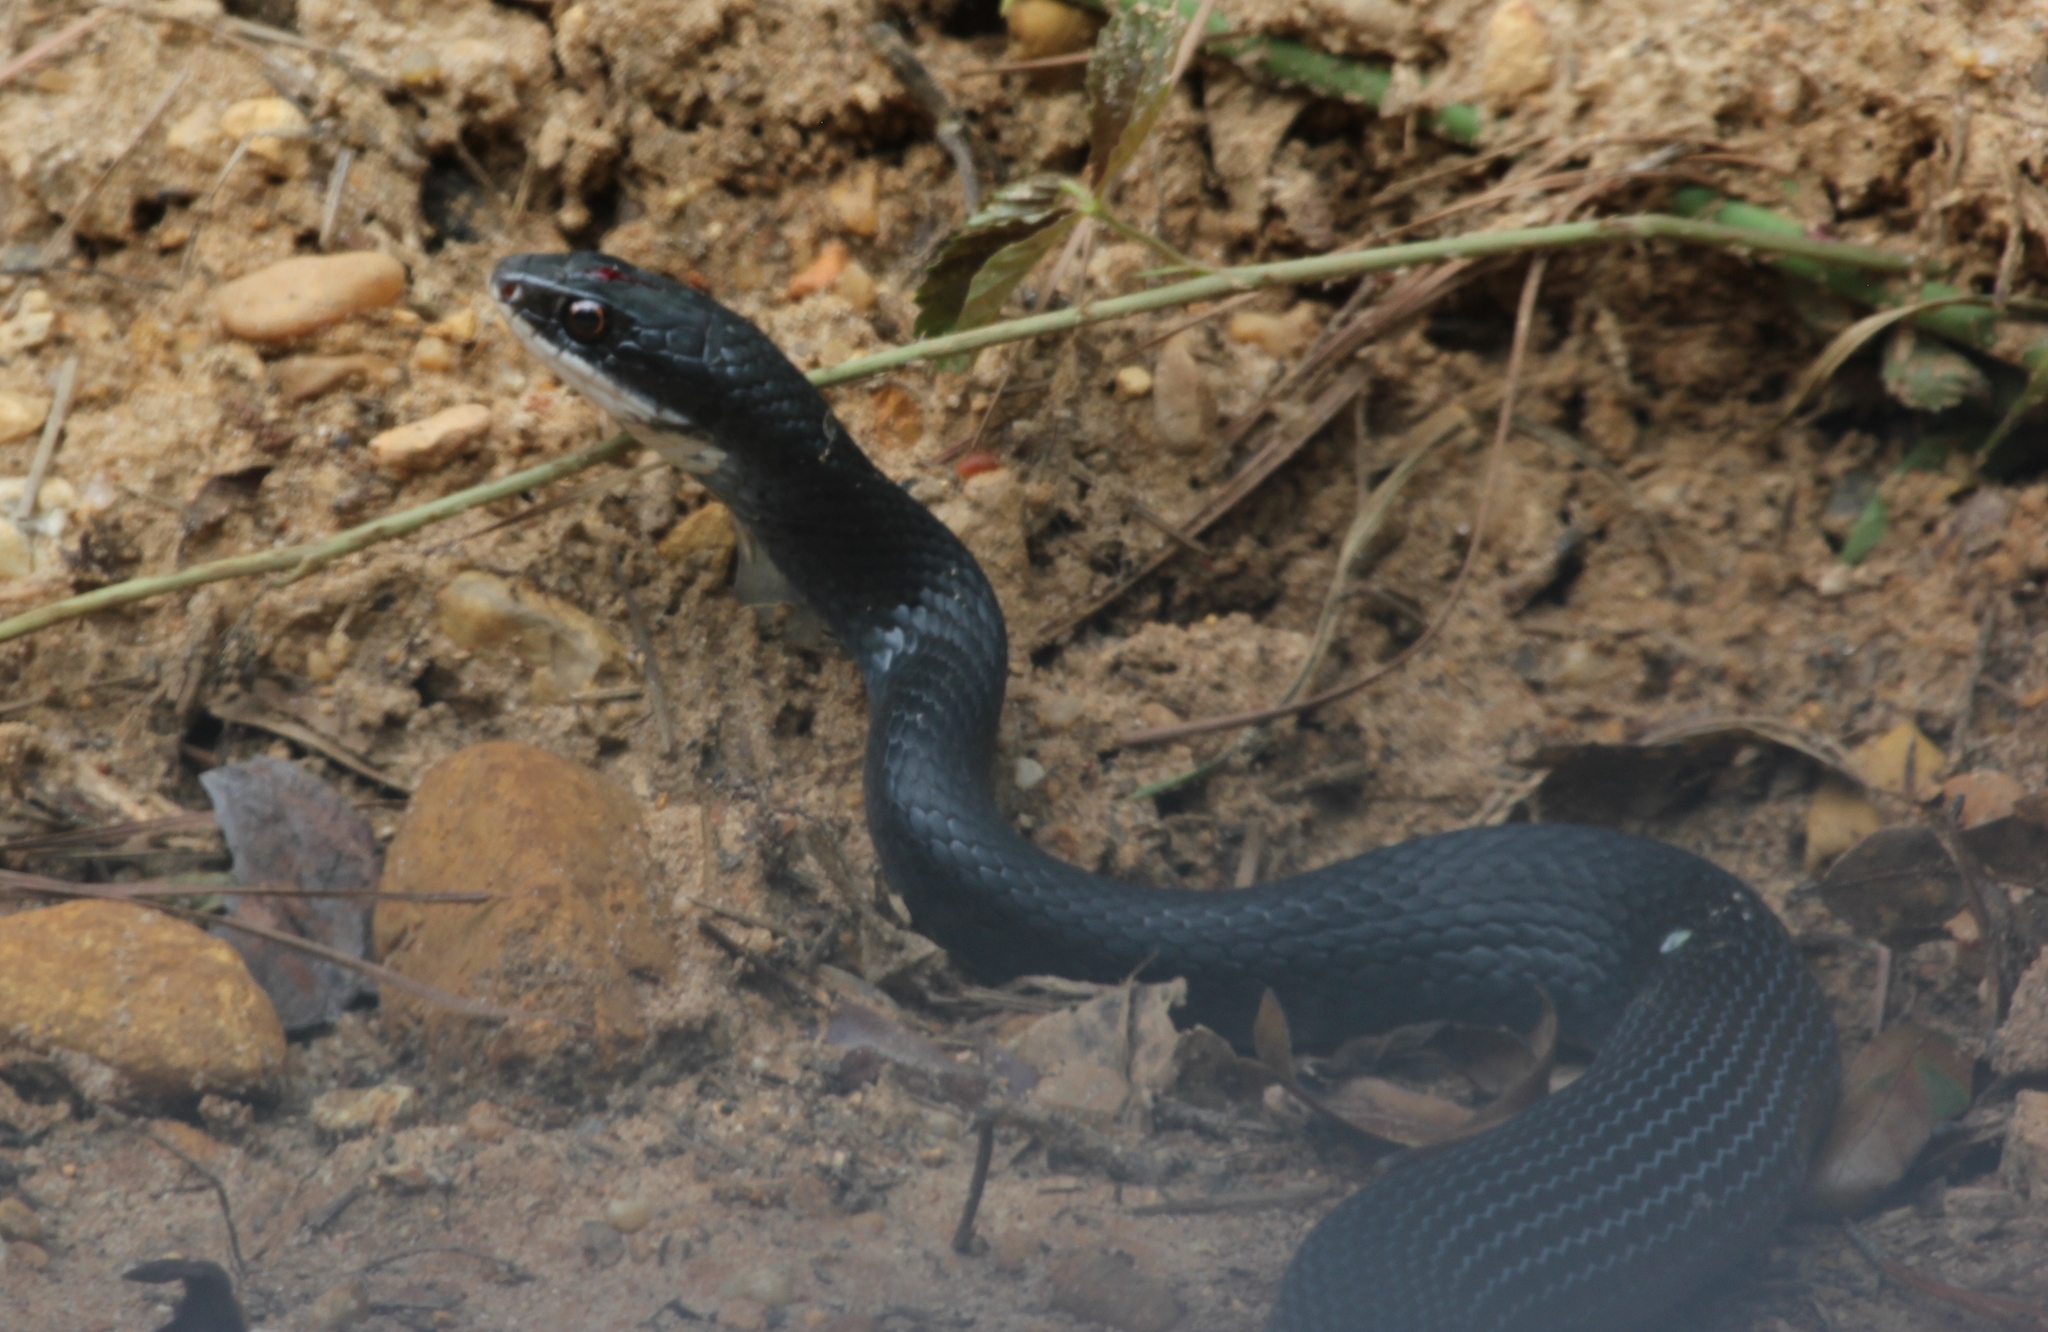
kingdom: Animalia
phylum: Chordata
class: Squamata
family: Colubridae
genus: Coluber
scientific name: Coluber constrictor
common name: Eastern racer
